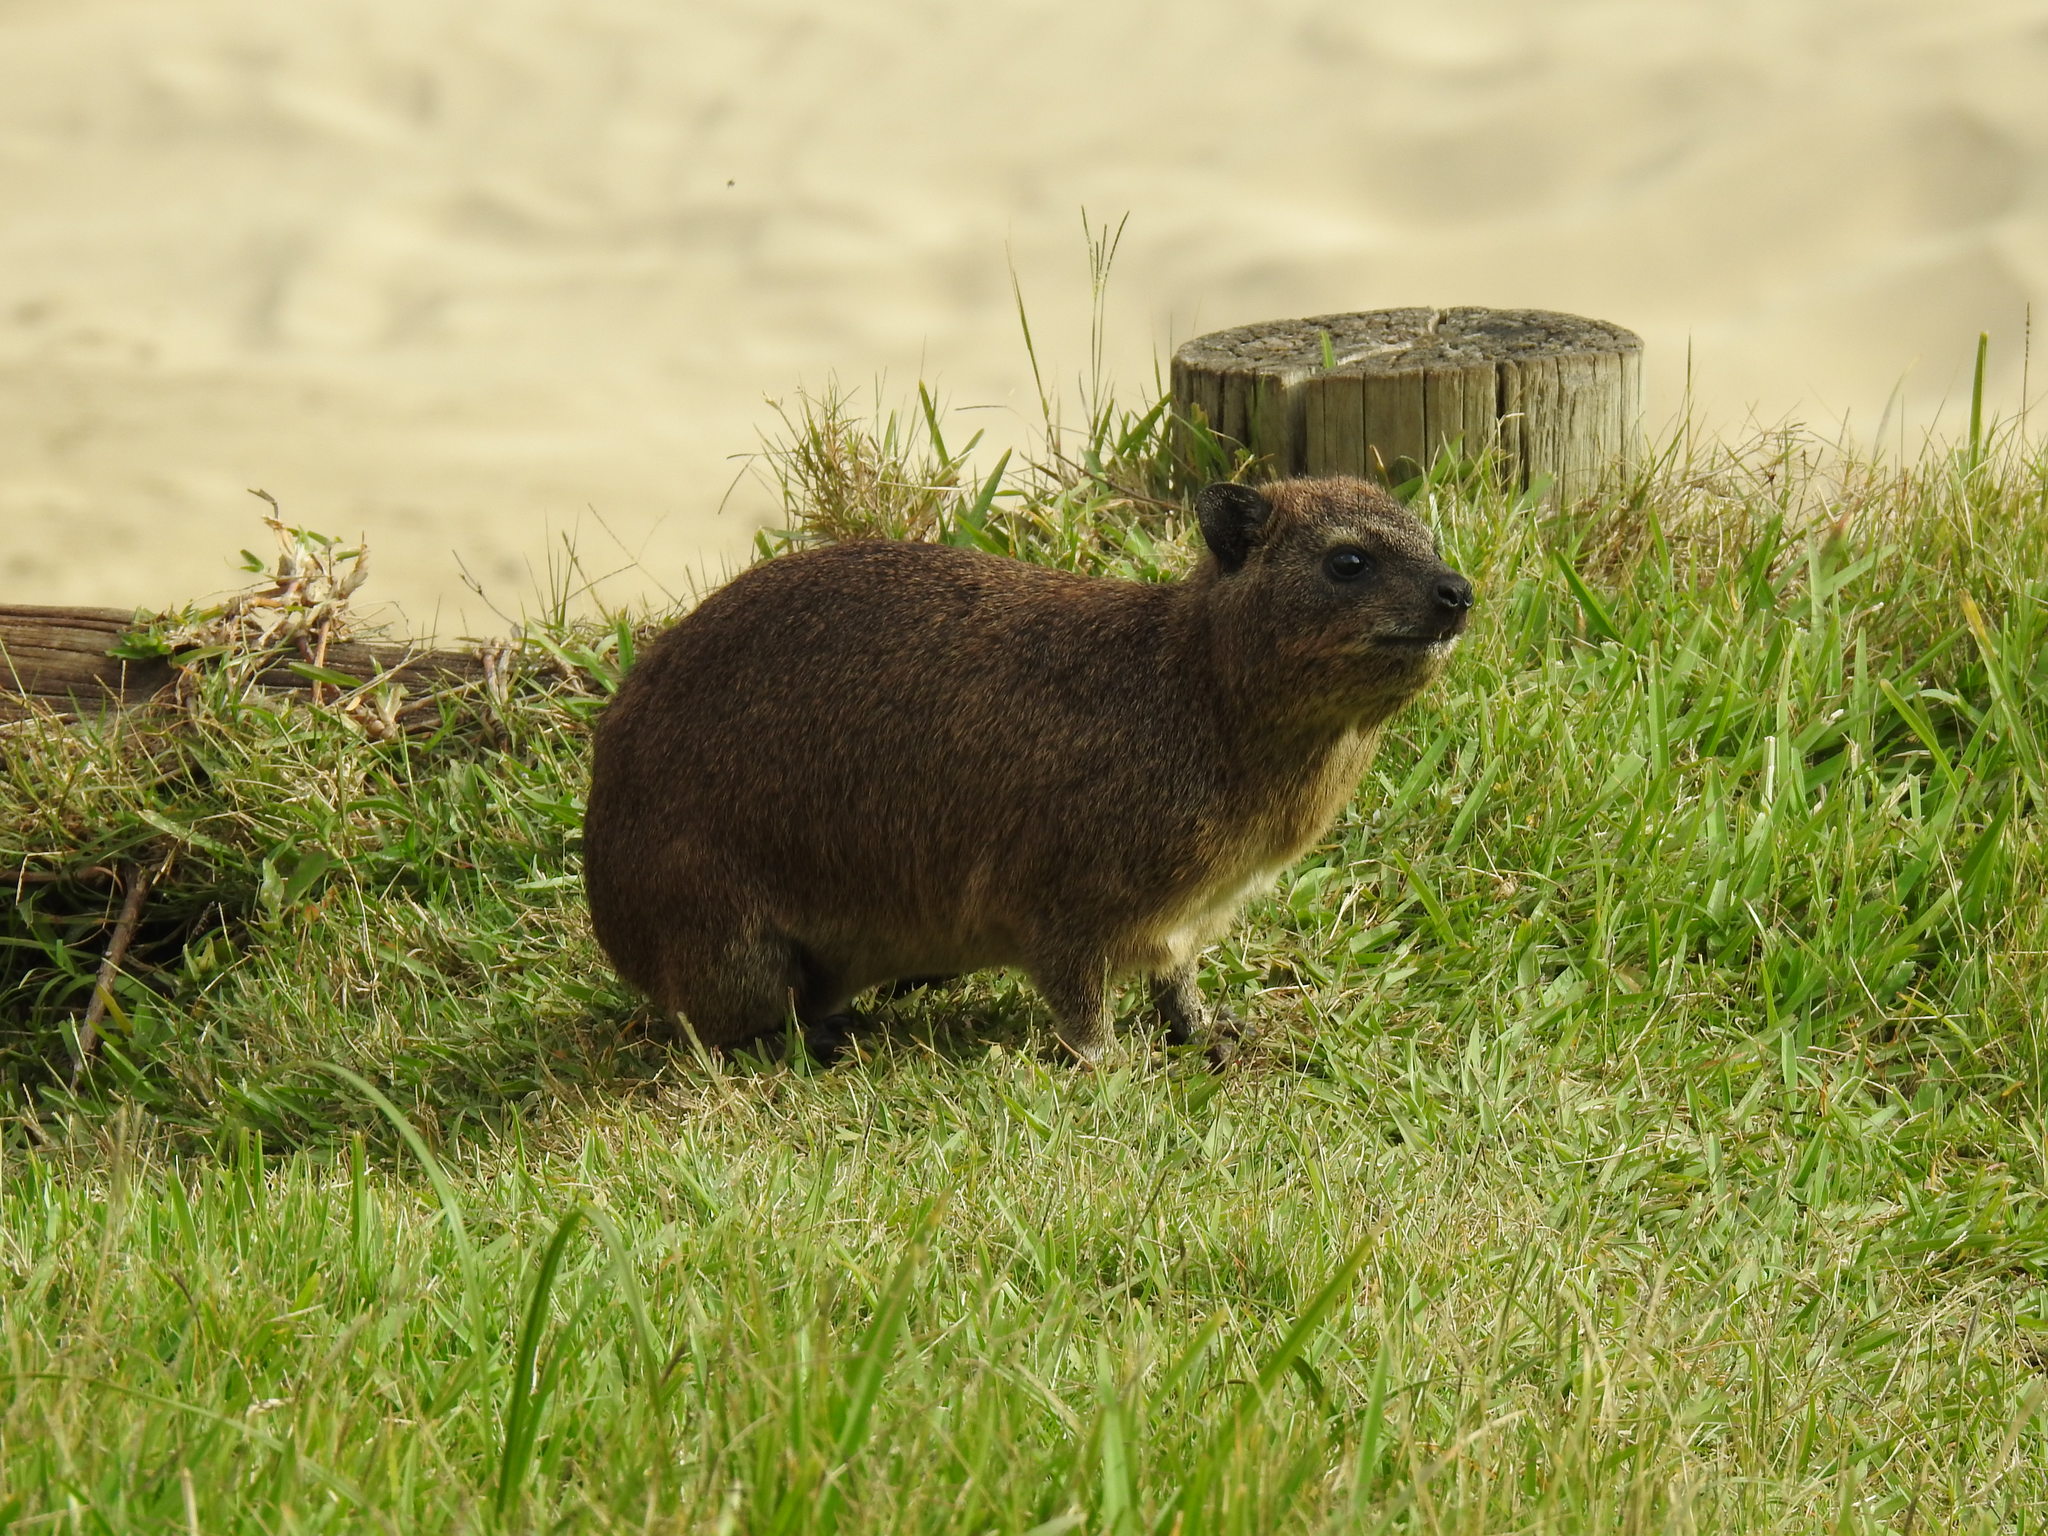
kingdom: Animalia
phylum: Chordata
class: Mammalia
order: Hyracoidea
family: Procaviidae
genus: Procavia
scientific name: Procavia capensis
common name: Rock hyrax
